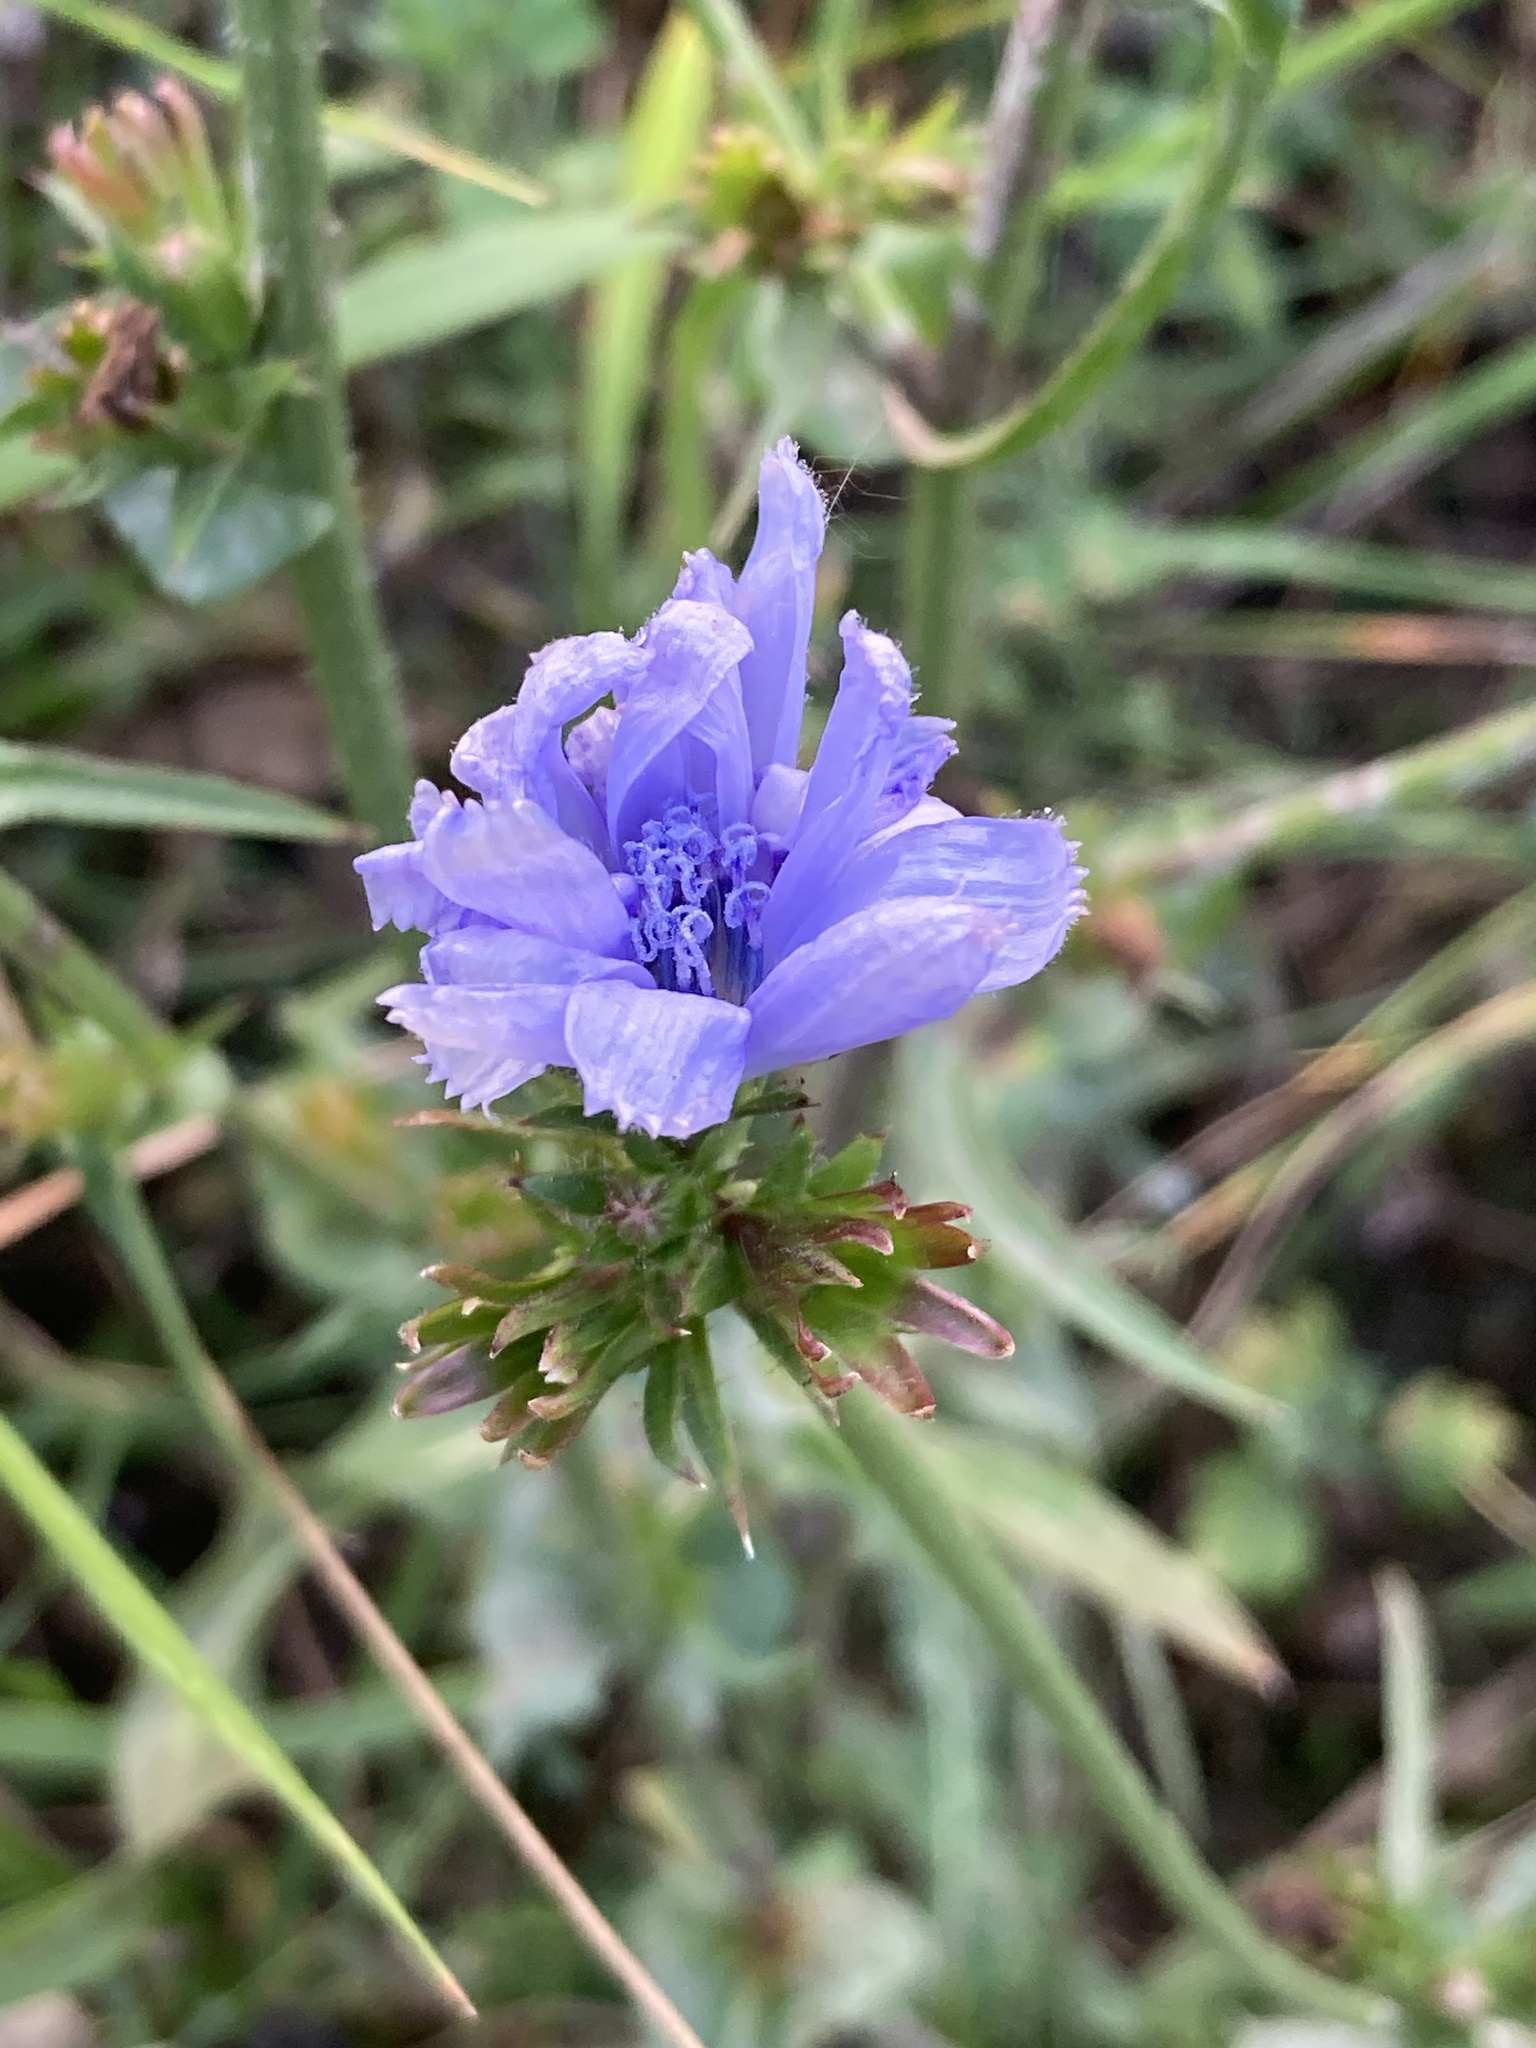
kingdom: Plantae
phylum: Tracheophyta
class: Magnoliopsida
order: Asterales
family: Asteraceae
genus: Cichorium
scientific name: Cichorium intybus
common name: Chicory
